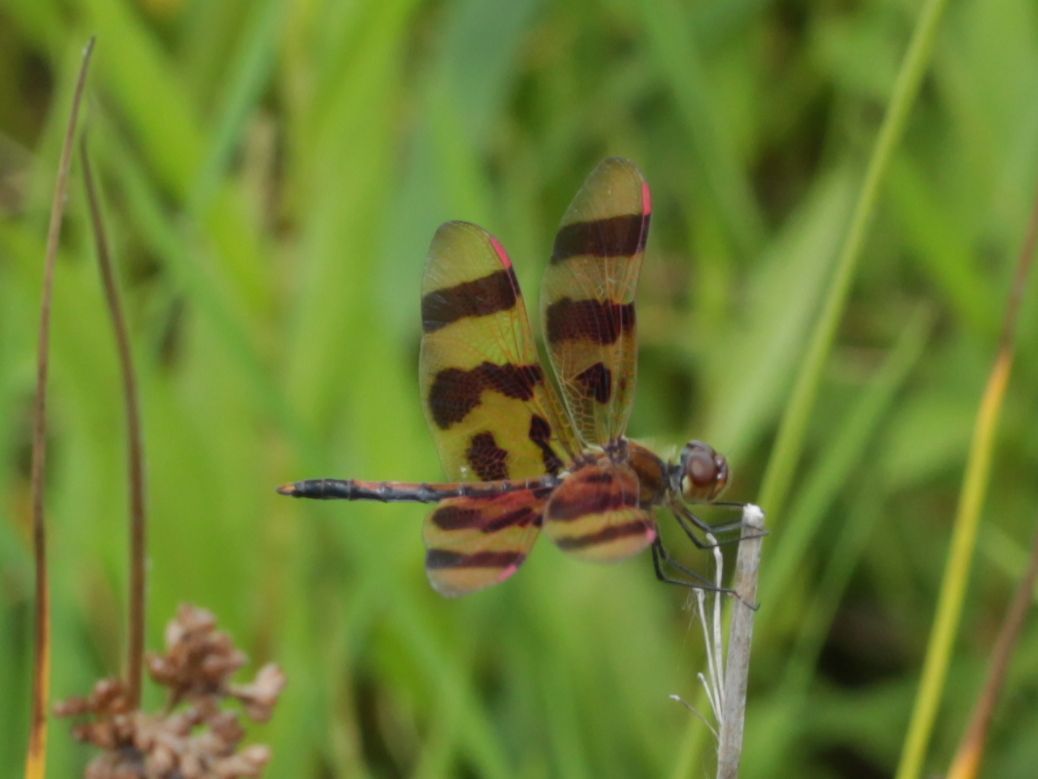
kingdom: Animalia
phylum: Arthropoda
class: Insecta
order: Odonata
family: Libellulidae
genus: Celithemis
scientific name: Celithemis eponina
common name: Halloween pennant
